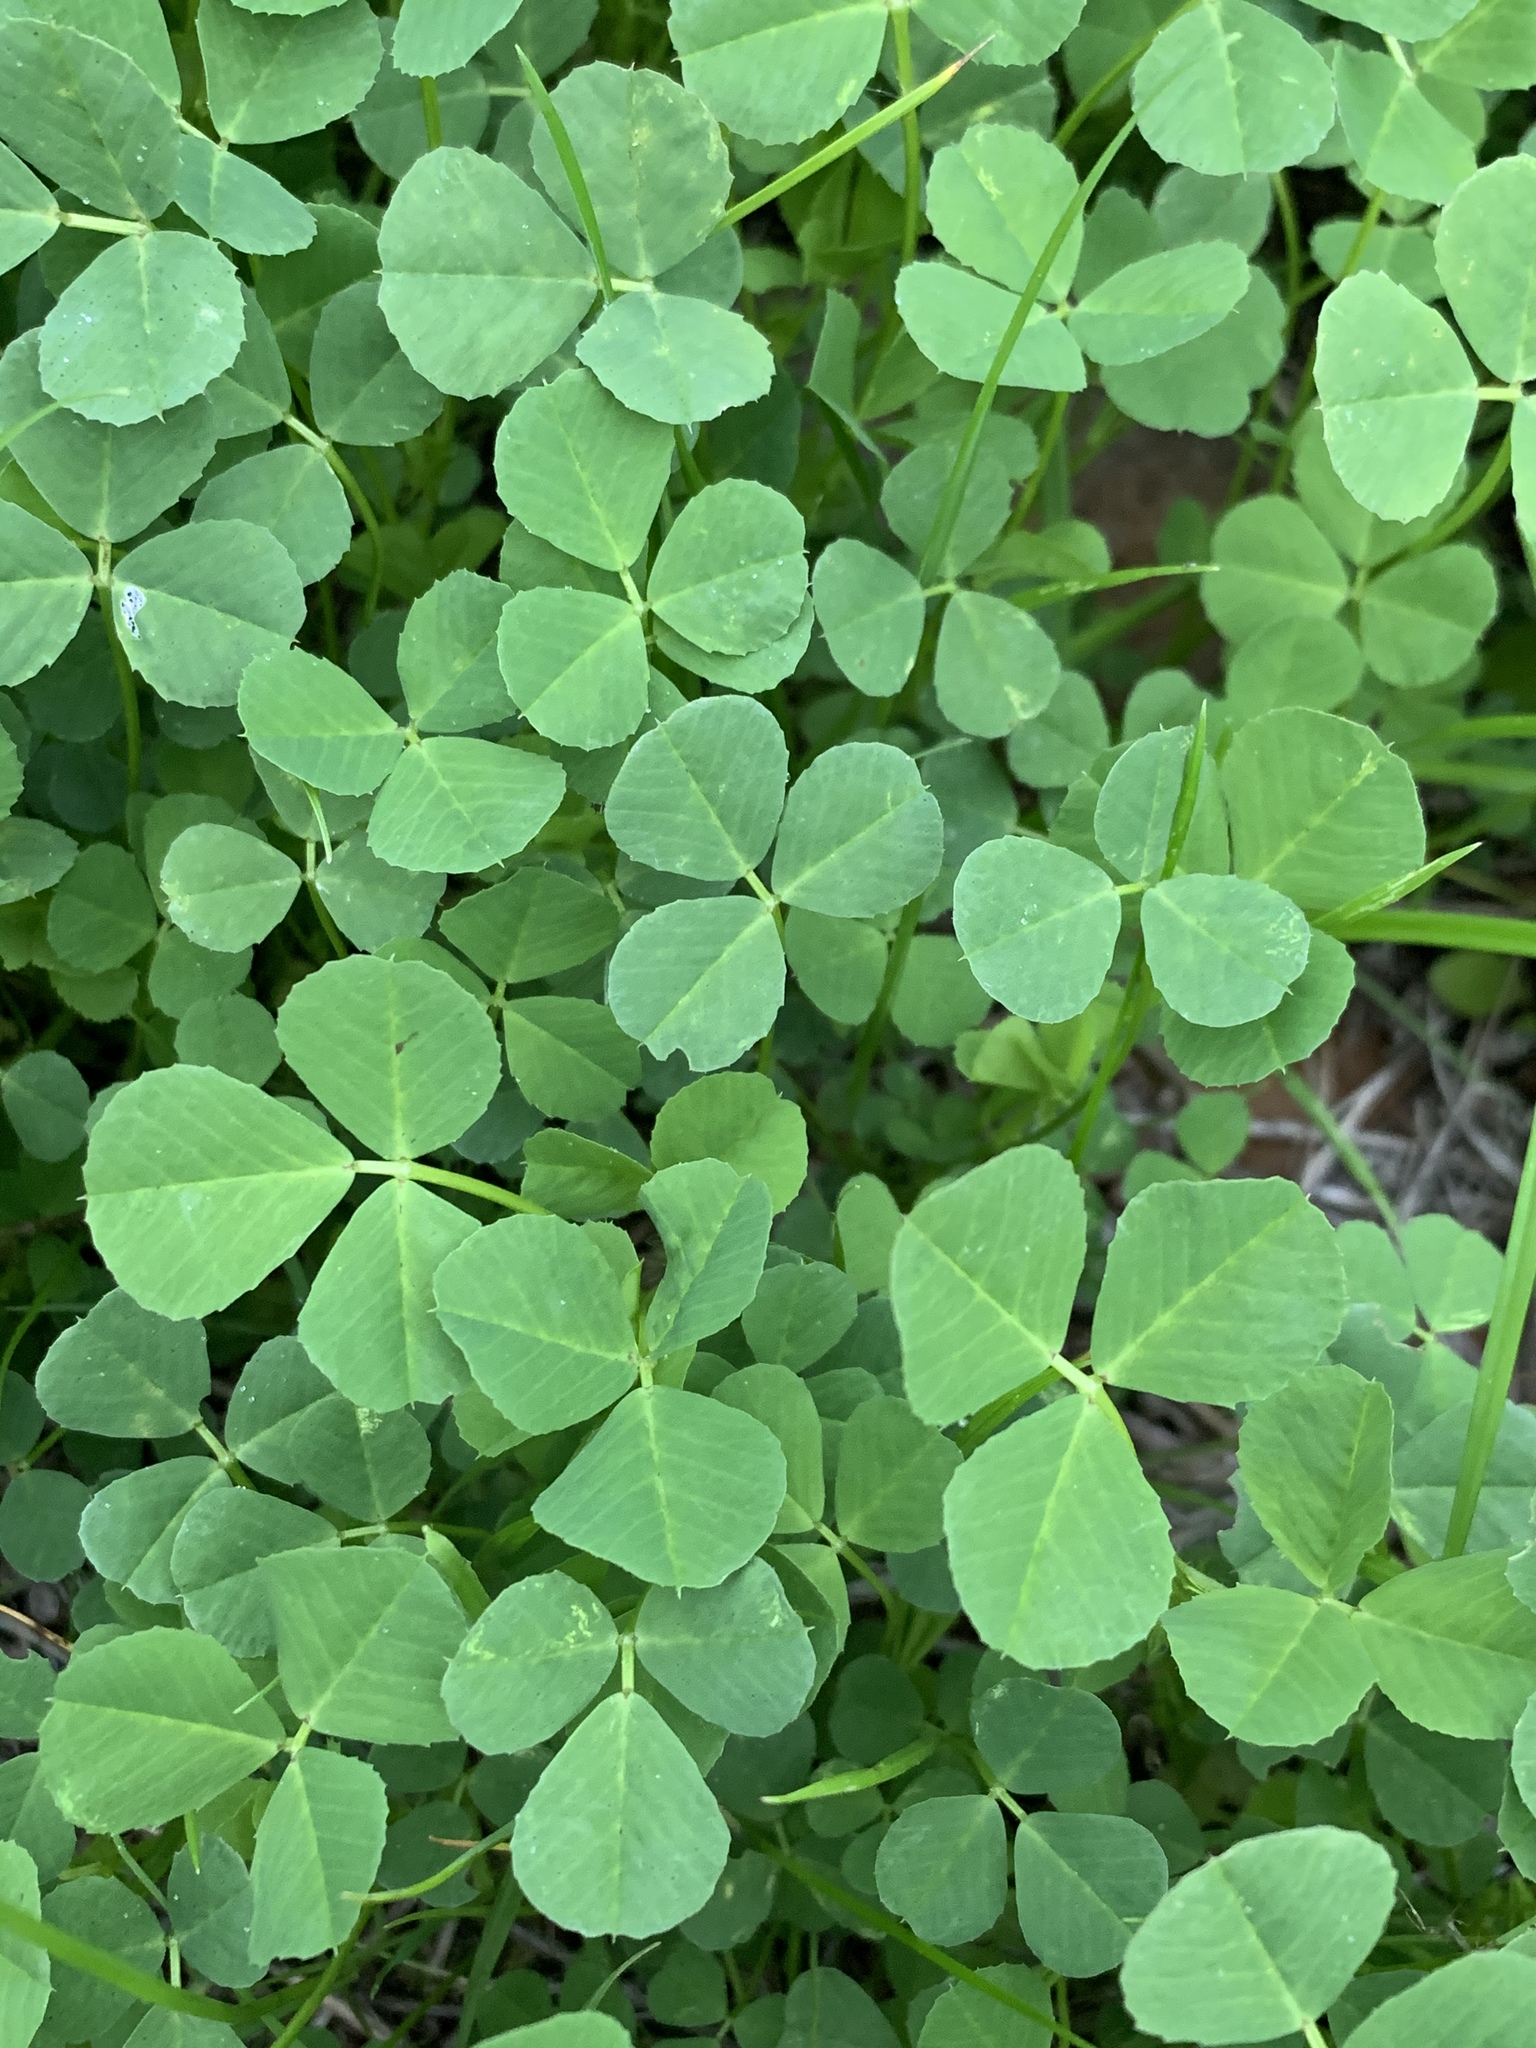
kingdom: Plantae
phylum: Tracheophyta
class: Magnoliopsida
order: Fabales
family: Fabaceae
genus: Medicago
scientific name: Medicago polymorpha
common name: Burclover
